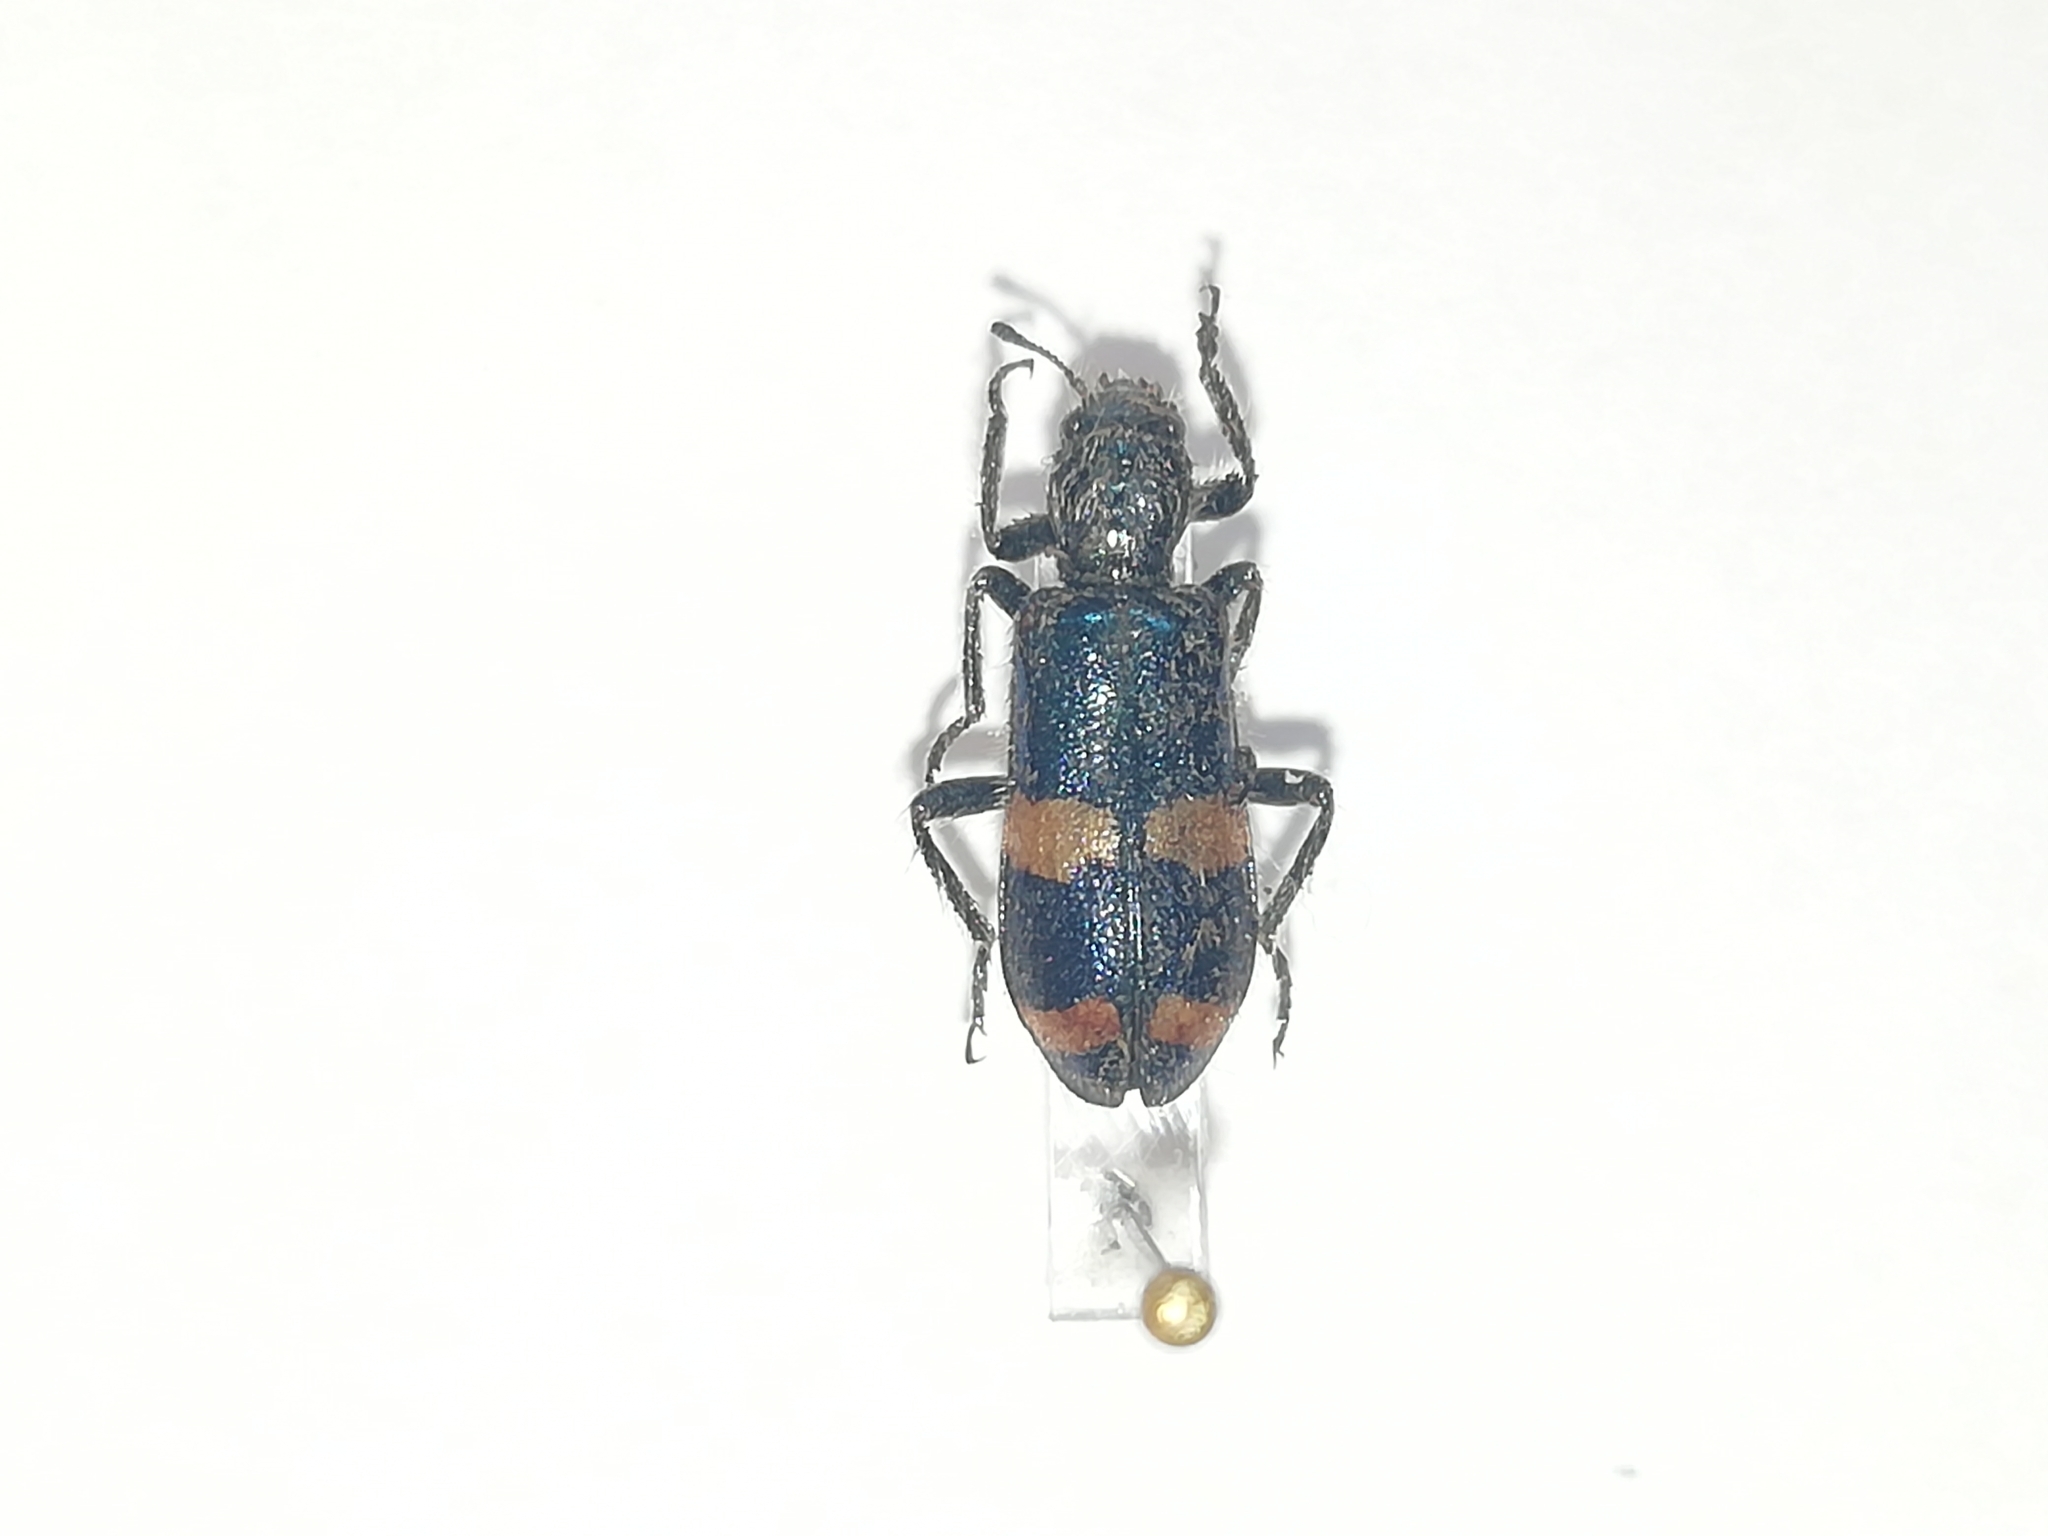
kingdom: Animalia
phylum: Arthropoda
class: Insecta
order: Coleoptera
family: Cleridae
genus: Trichodes
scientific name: Trichodes
